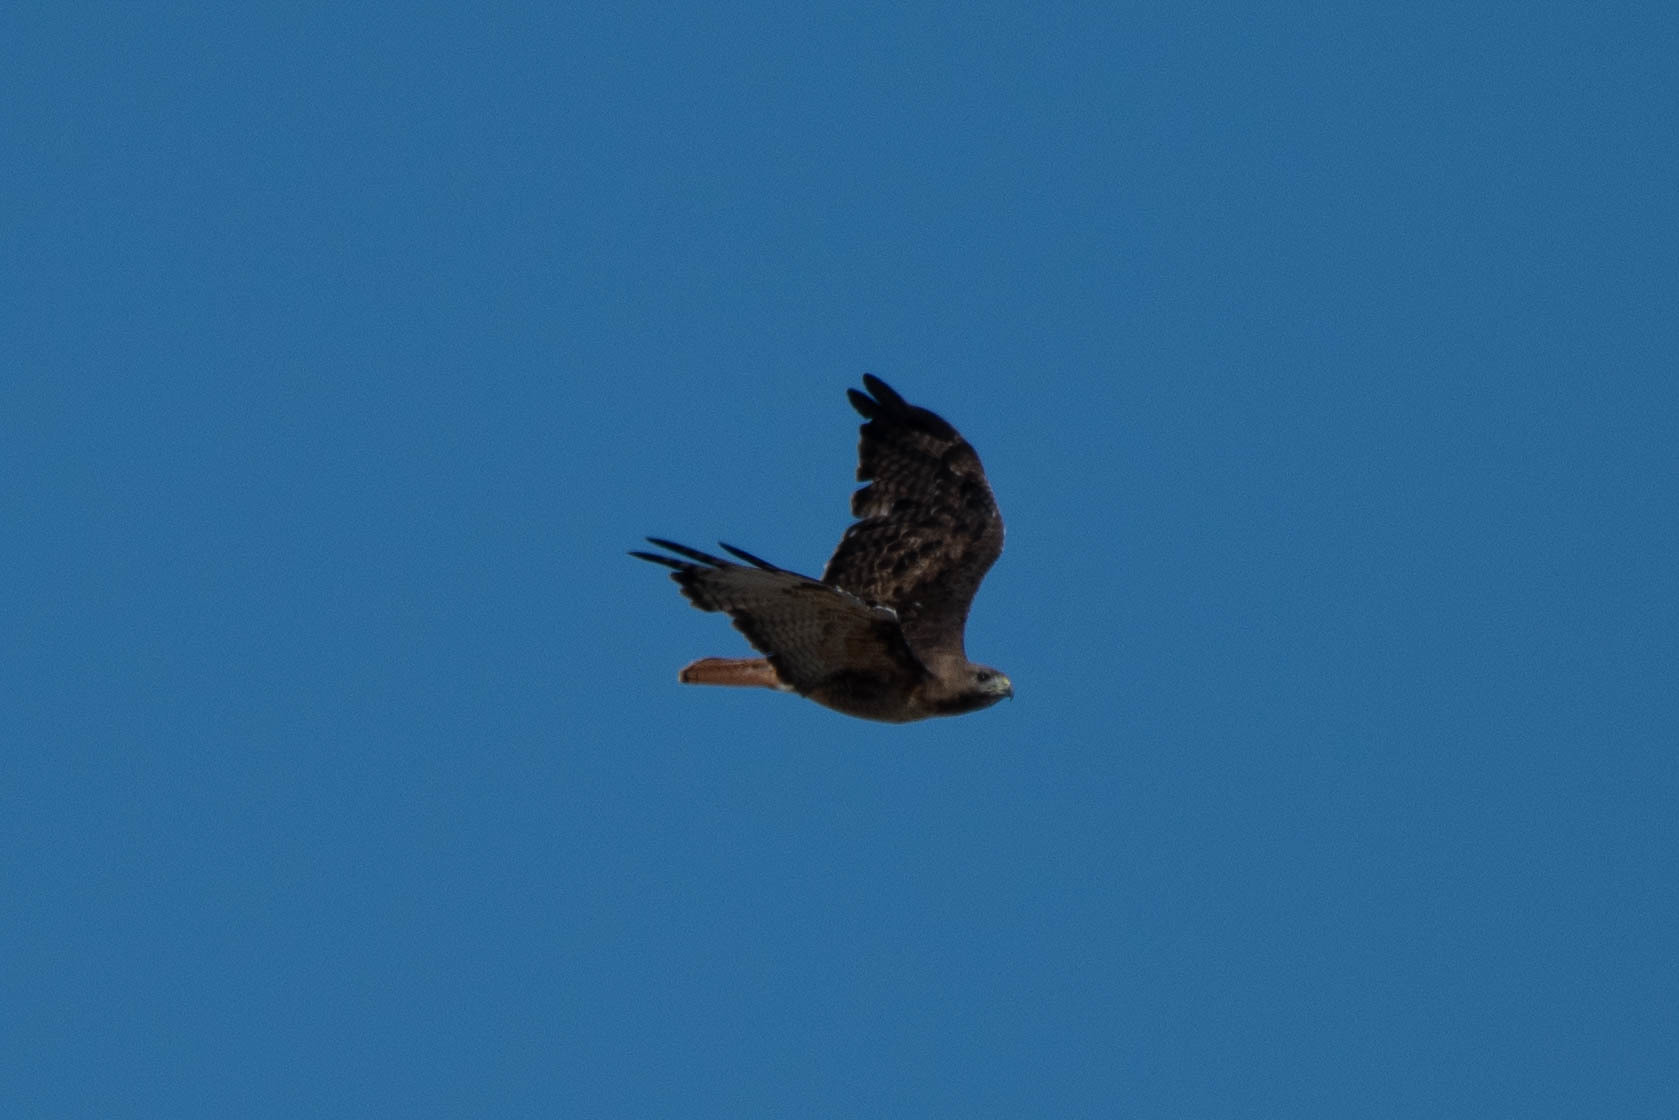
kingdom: Animalia
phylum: Chordata
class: Aves
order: Accipitriformes
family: Accipitridae
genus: Buteo
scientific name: Buteo jamaicensis
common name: Red-tailed hawk
